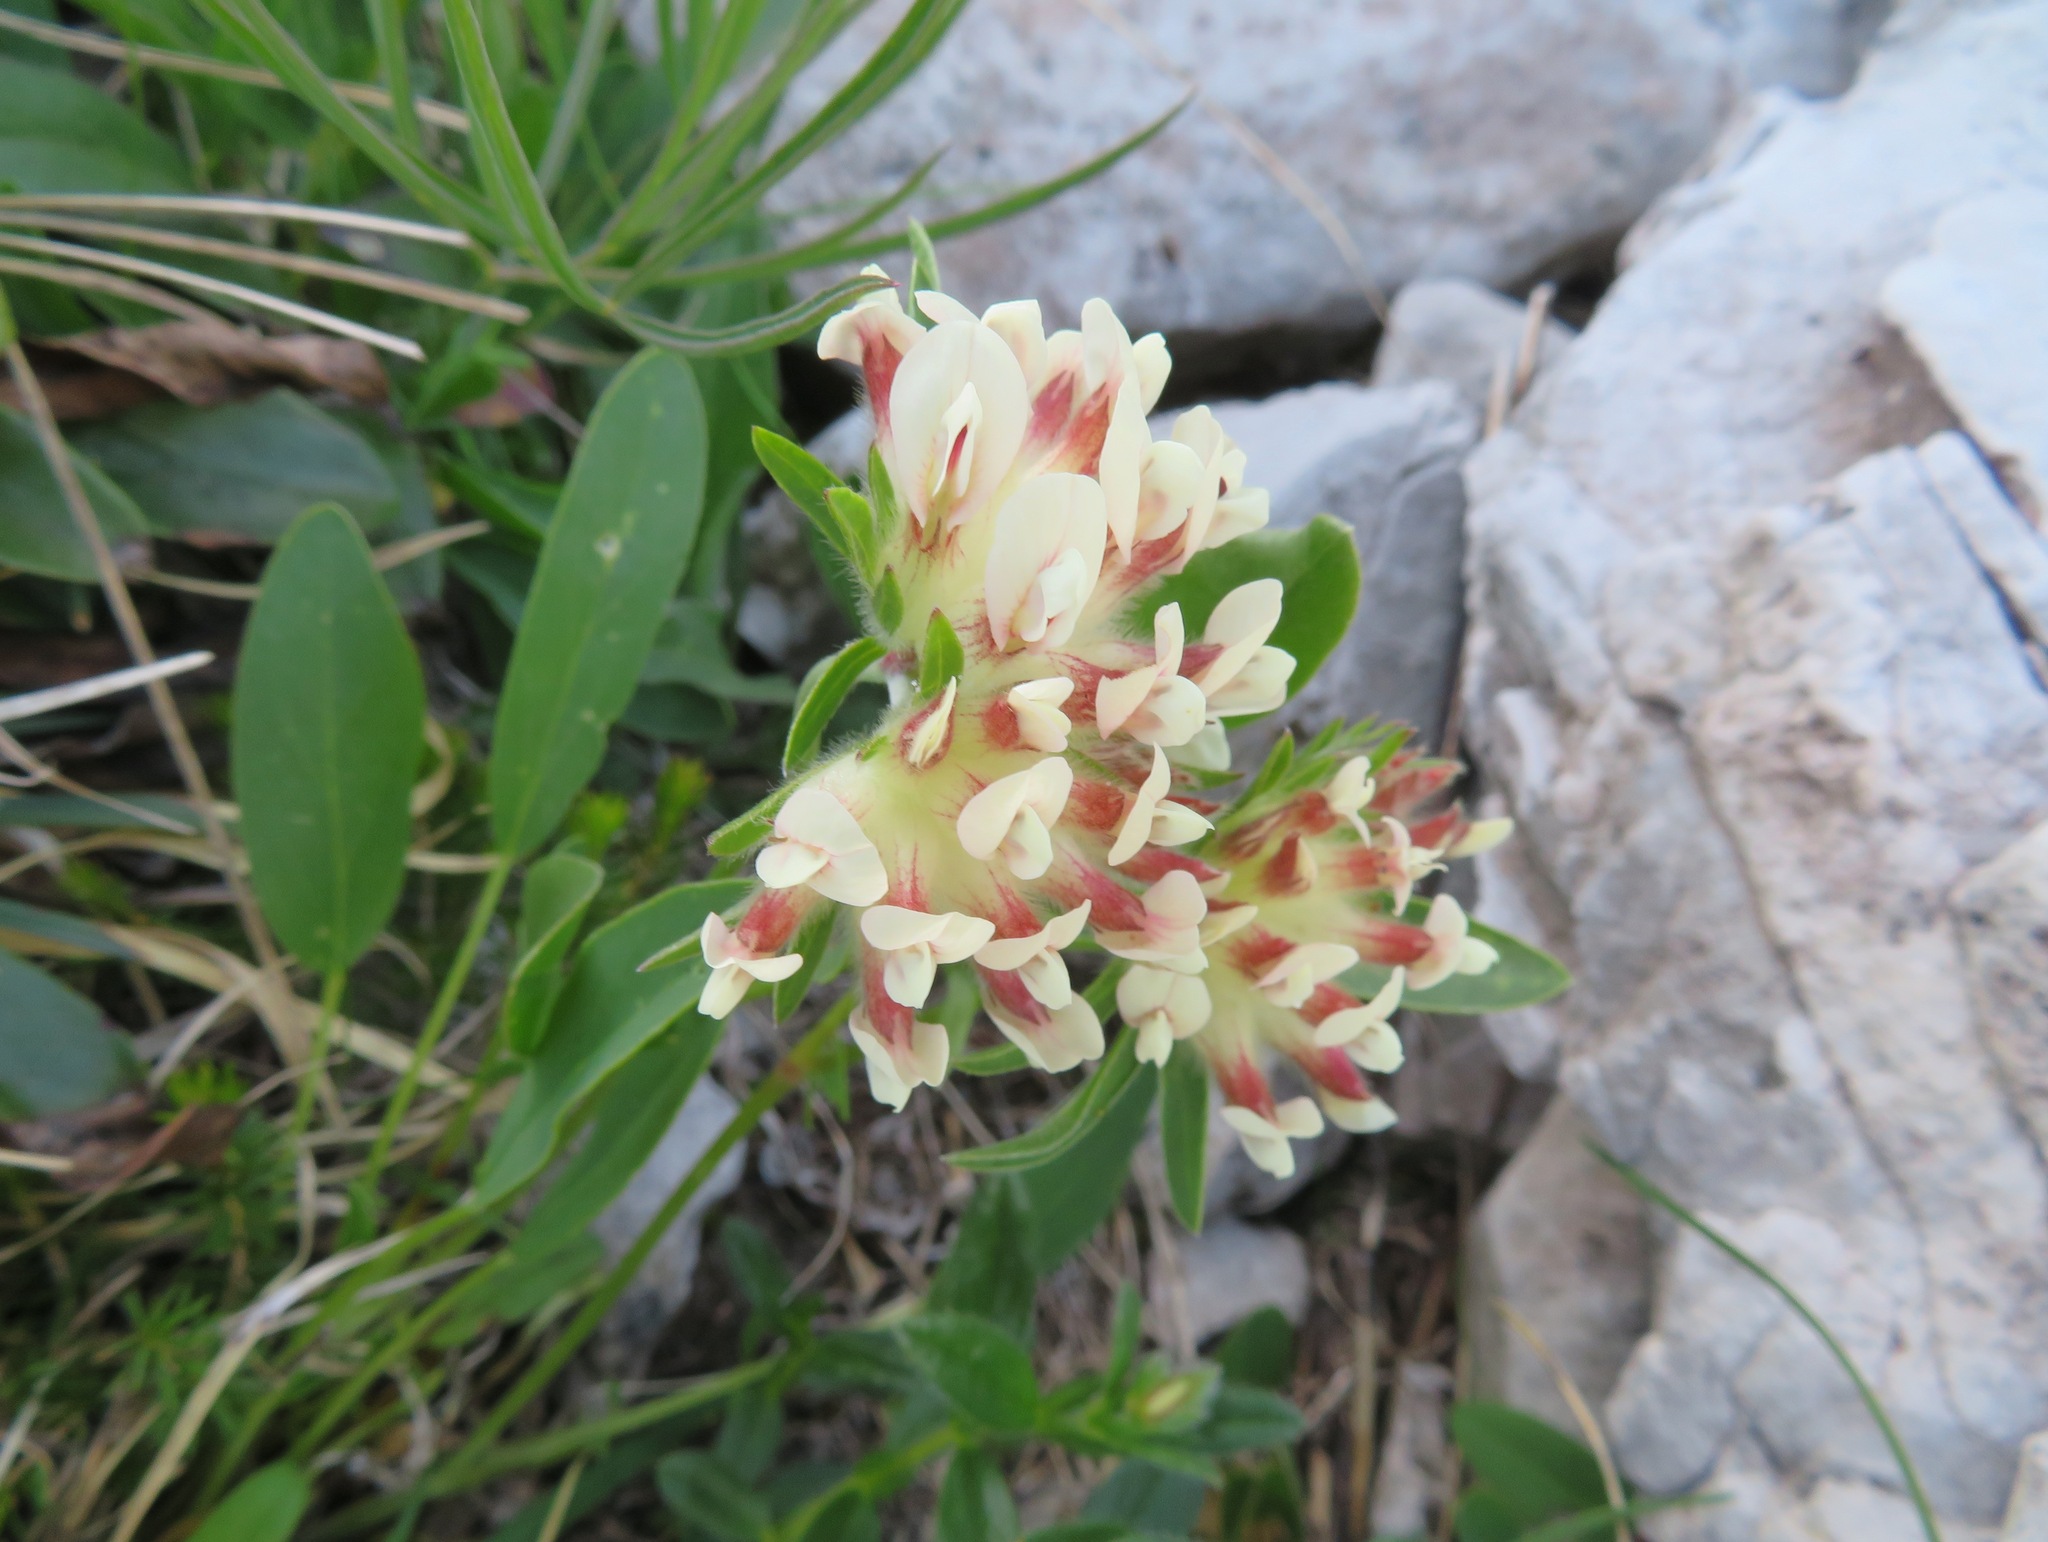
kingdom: Plantae
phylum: Tracheophyta
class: Magnoliopsida
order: Fabales
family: Fabaceae
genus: Anthyllis
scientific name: Anthyllis vulneraria
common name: Kidney vetch
